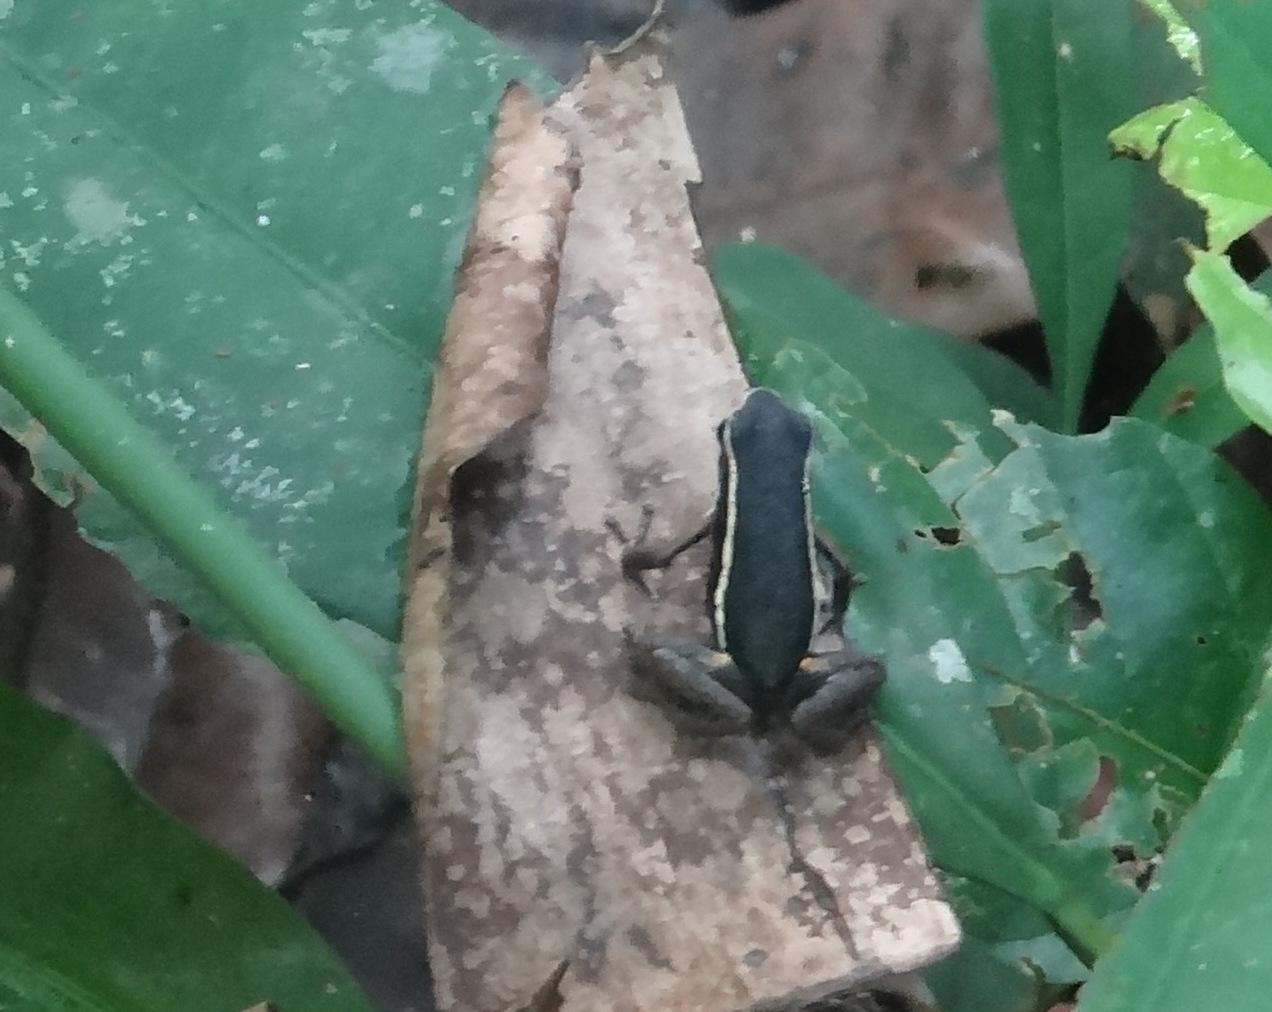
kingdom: Animalia
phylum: Chordata
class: Amphibia
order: Anura
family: Dendrobatidae
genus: Ameerega
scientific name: Ameerega hahneli
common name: Yurimaguas pioson frog
